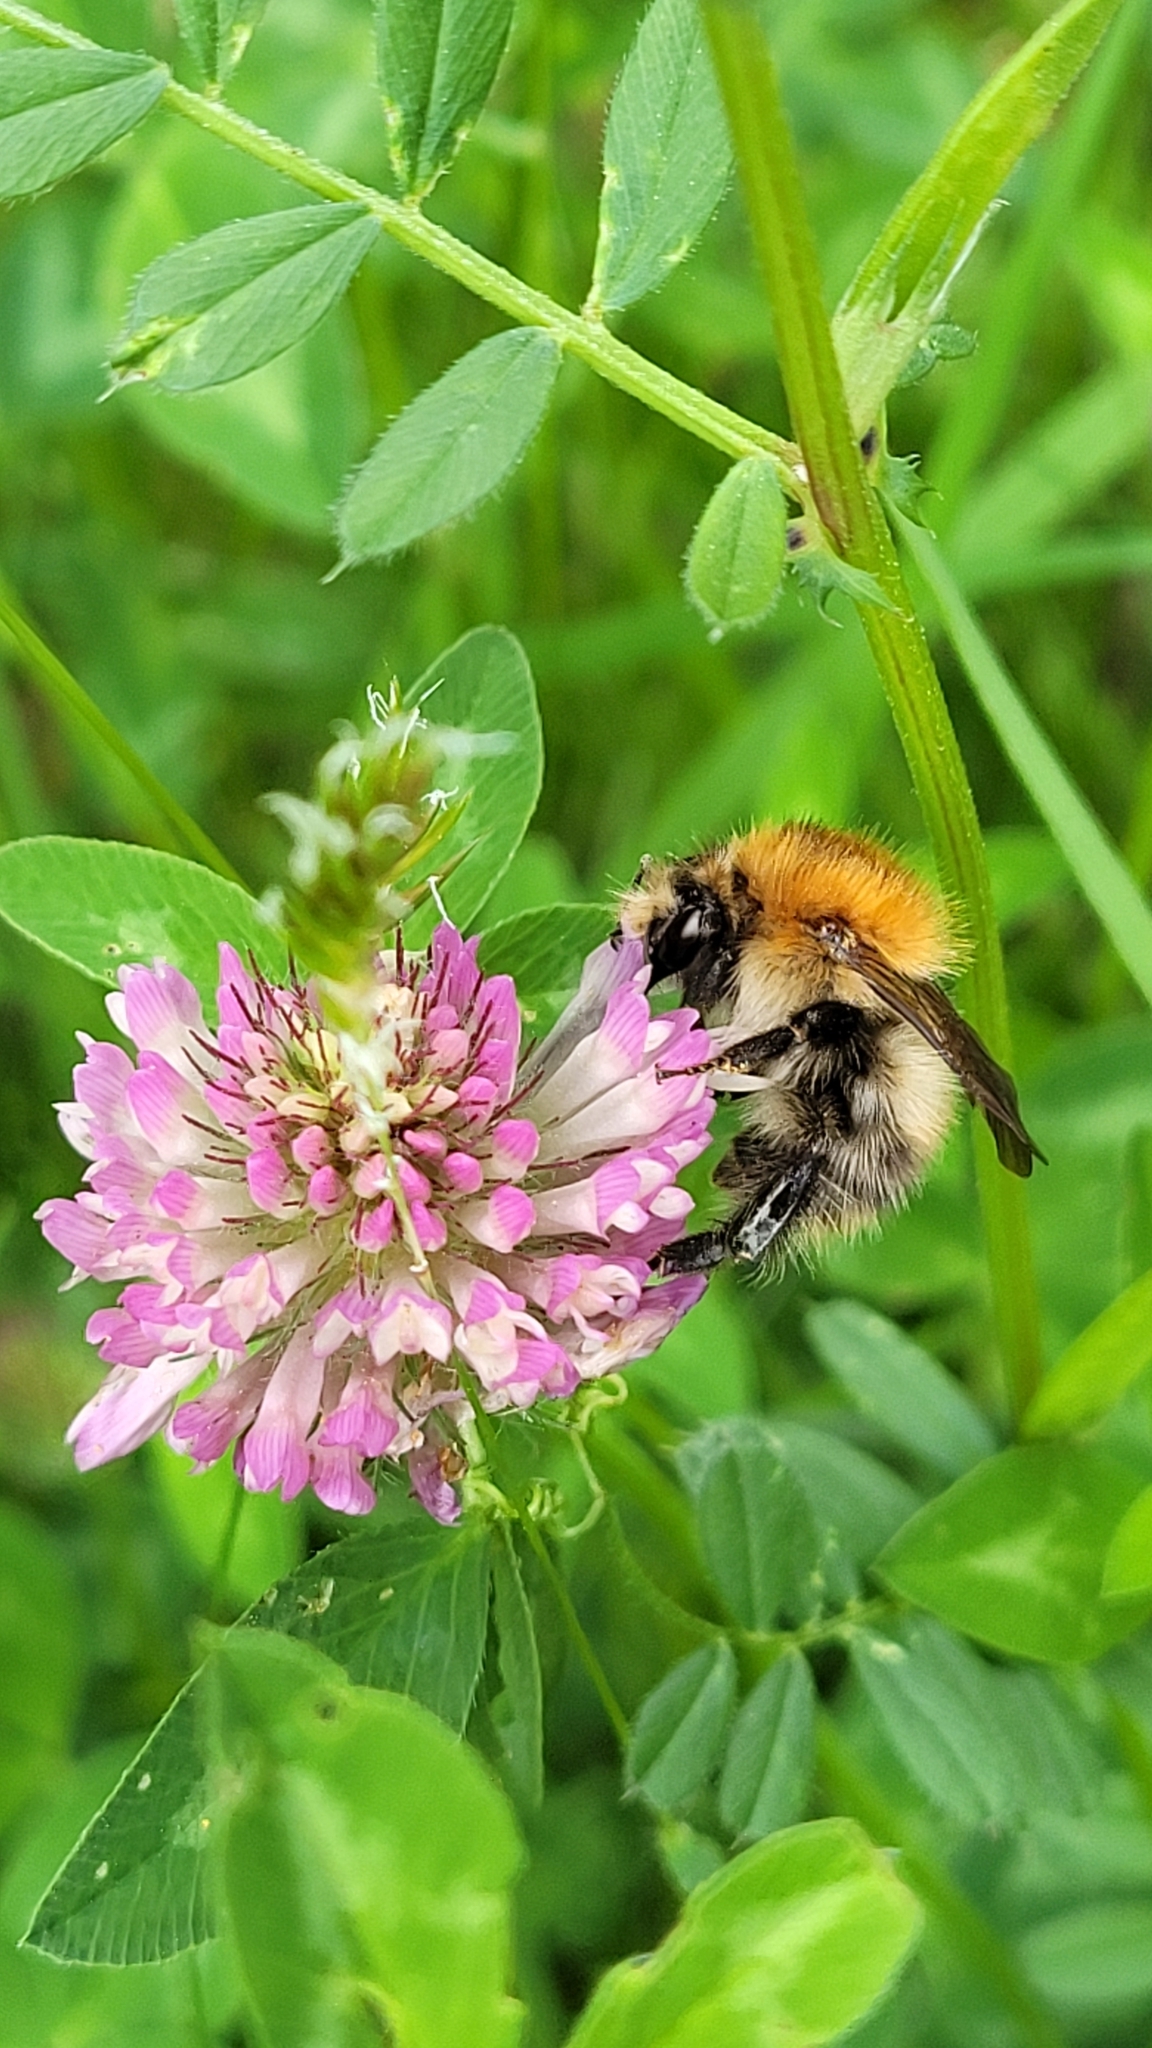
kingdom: Animalia
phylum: Arthropoda
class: Insecta
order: Hymenoptera
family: Apidae
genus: Bombus
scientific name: Bombus pascuorum
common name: Common carder bee
